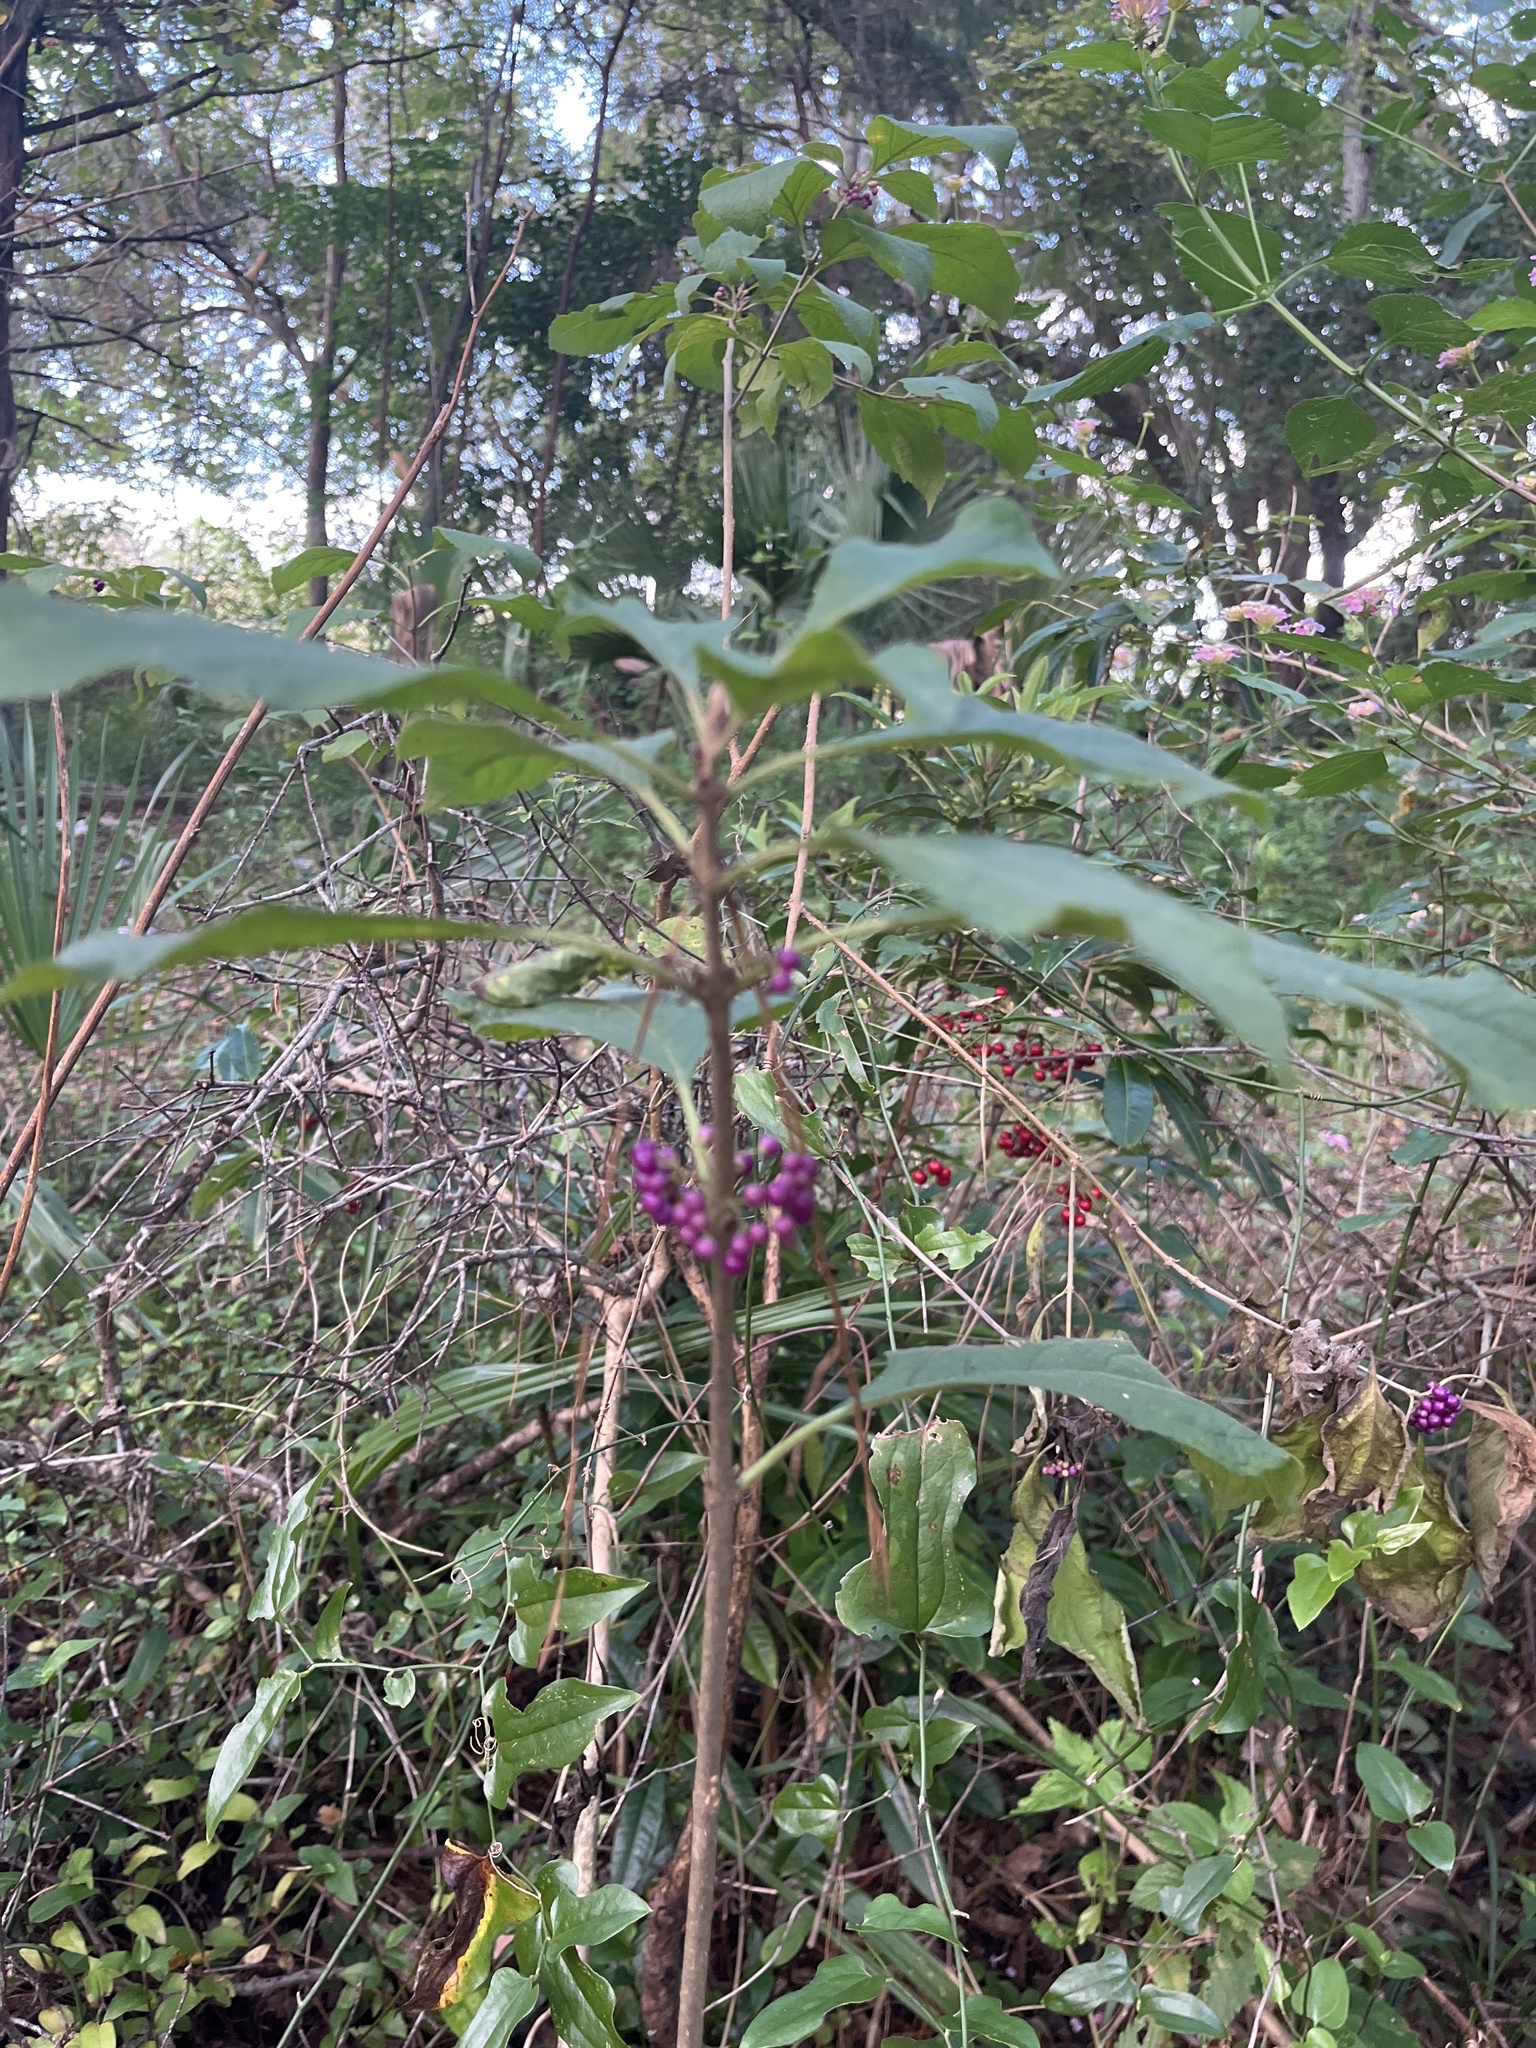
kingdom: Plantae
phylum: Tracheophyta
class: Magnoliopsida
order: Lamiales
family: Lamiaceae
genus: Callicarpa
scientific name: Callicarpa americana
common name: American beautyberry
